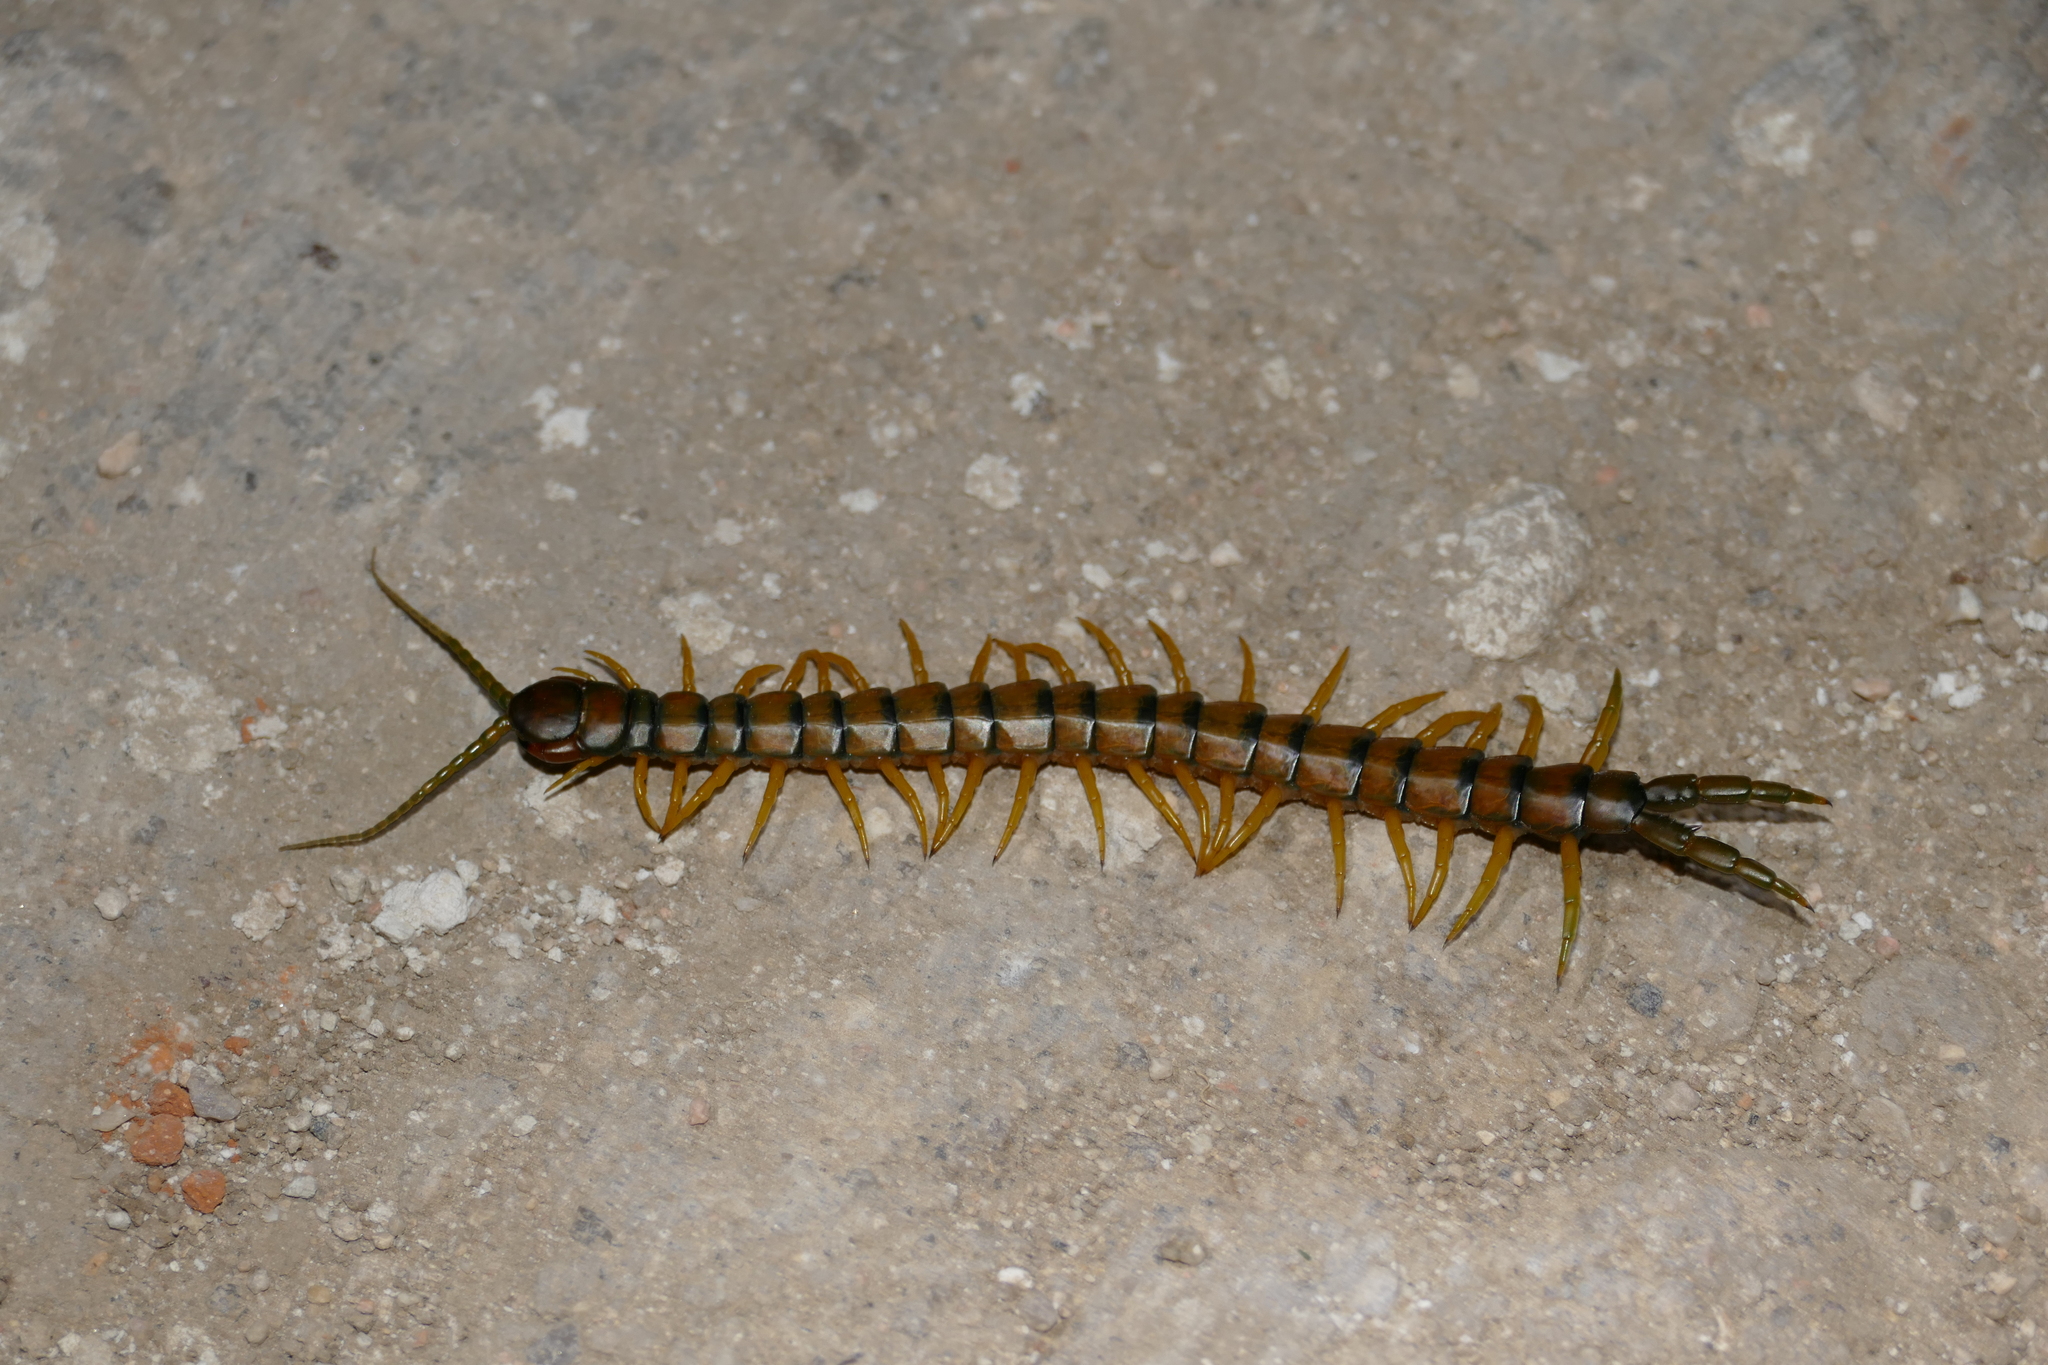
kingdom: Animalia
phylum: Arthropoda
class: Chilopoda
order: Scolopendromorpha
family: Scolopendridae
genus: Scolopendra
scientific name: Scolopendra cingulata
